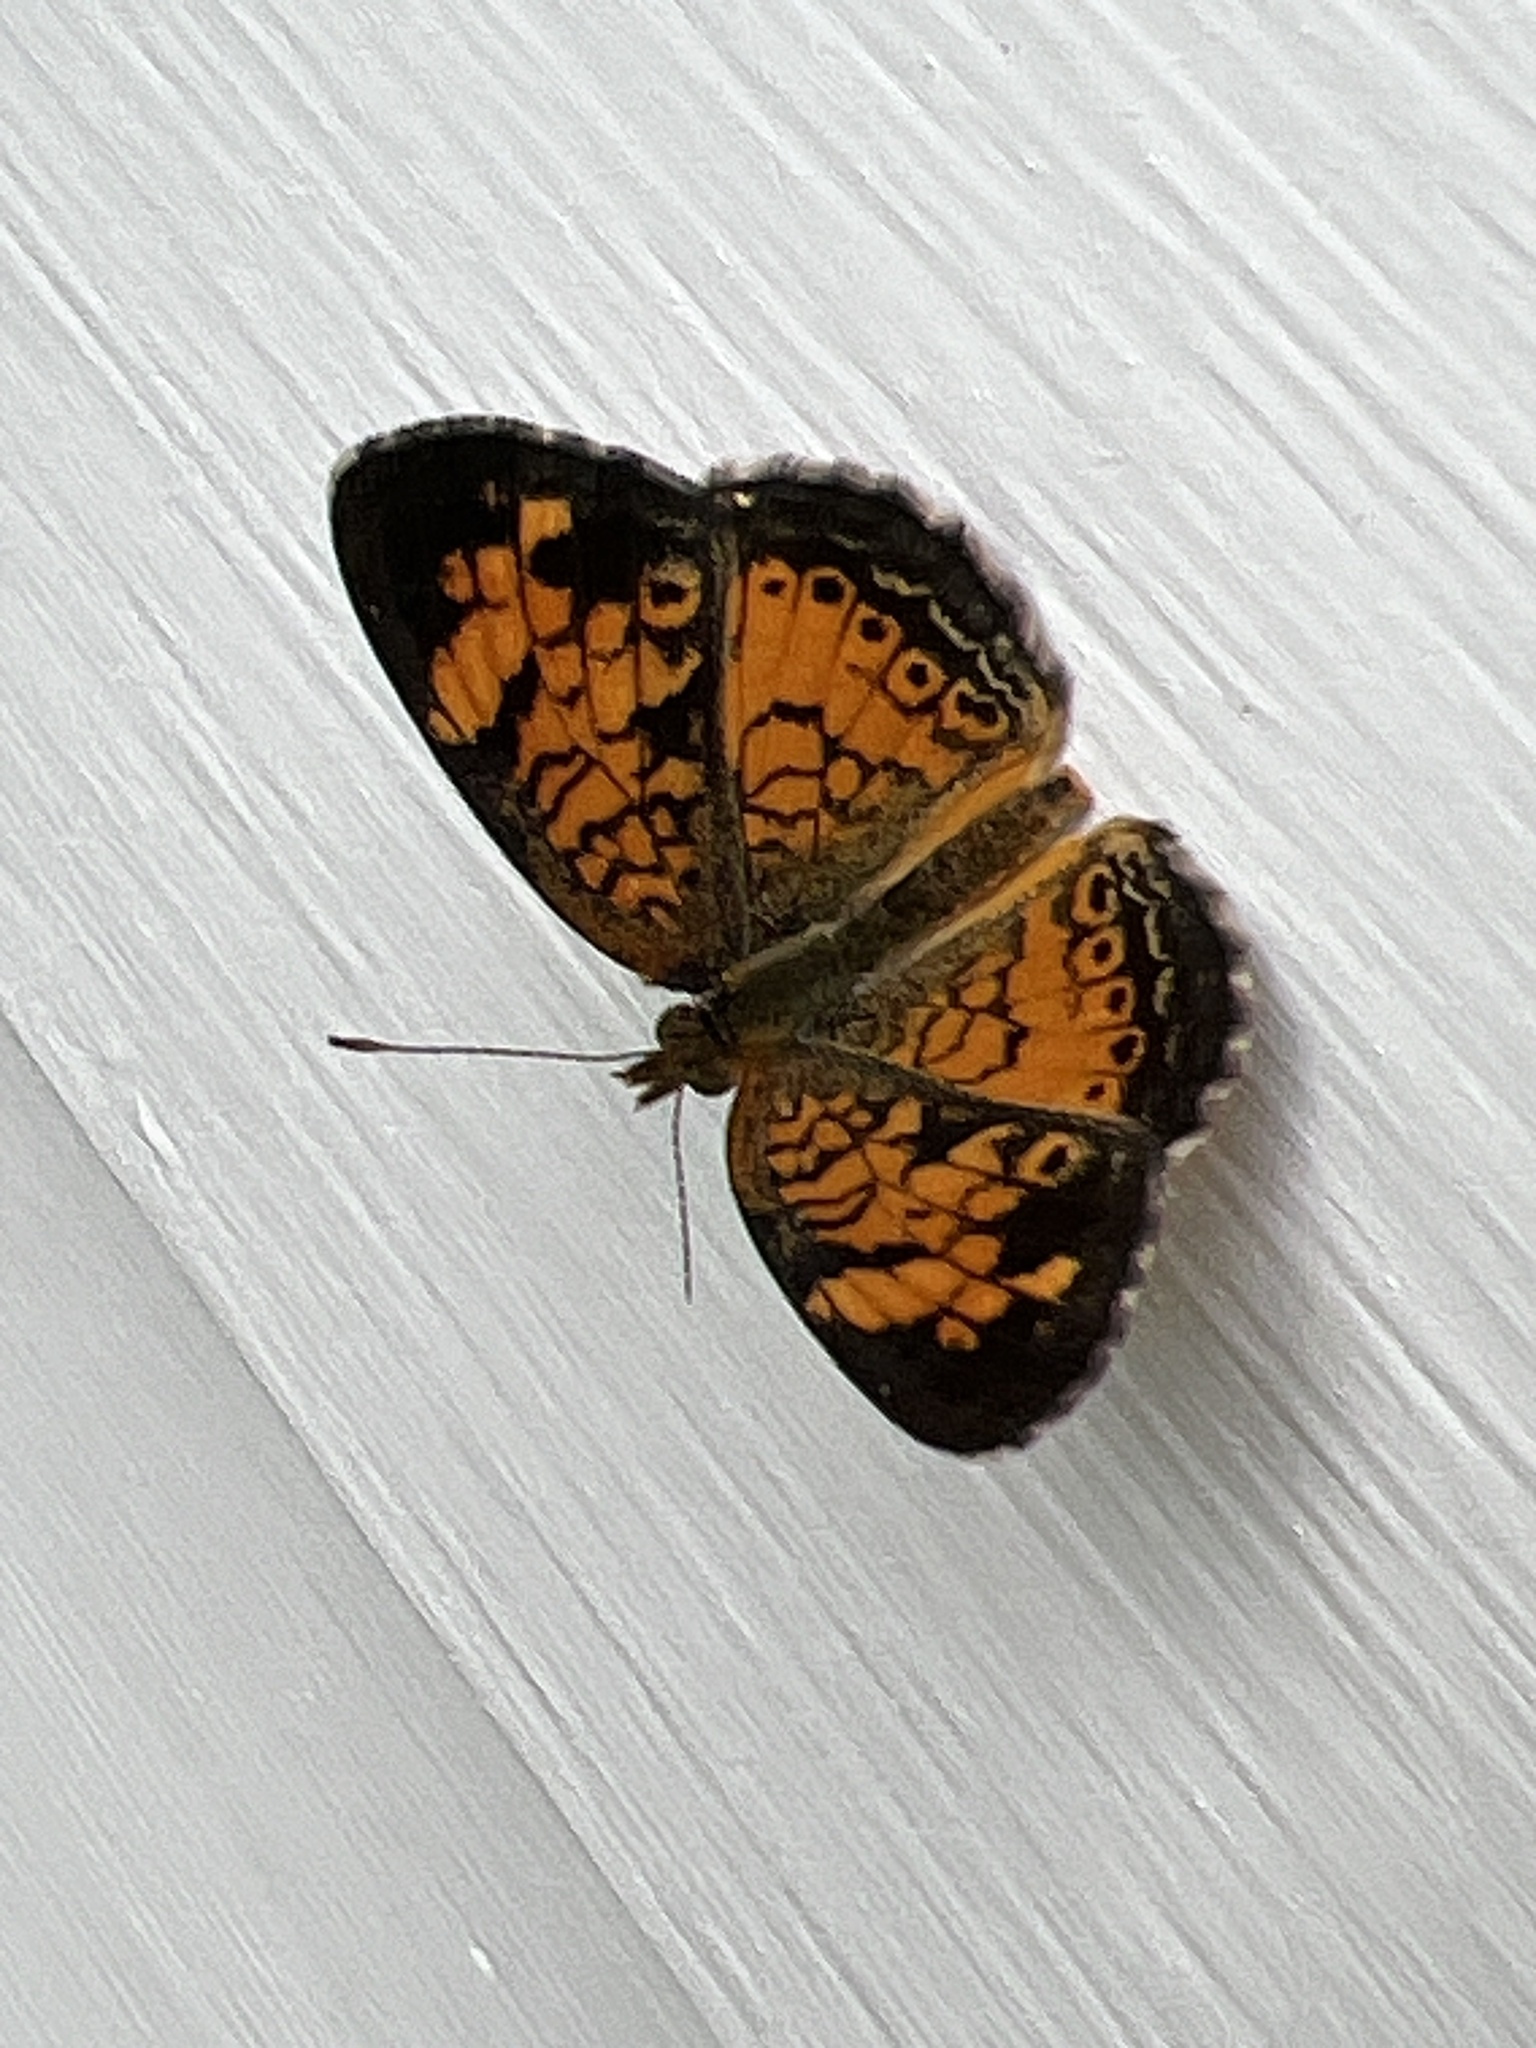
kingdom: Animalia
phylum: Arthropoda
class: Insecta
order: Lepidoptera
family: Nymphalidae
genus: Phyciodes
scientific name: Phyciodes tharos
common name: Pearl crescent
